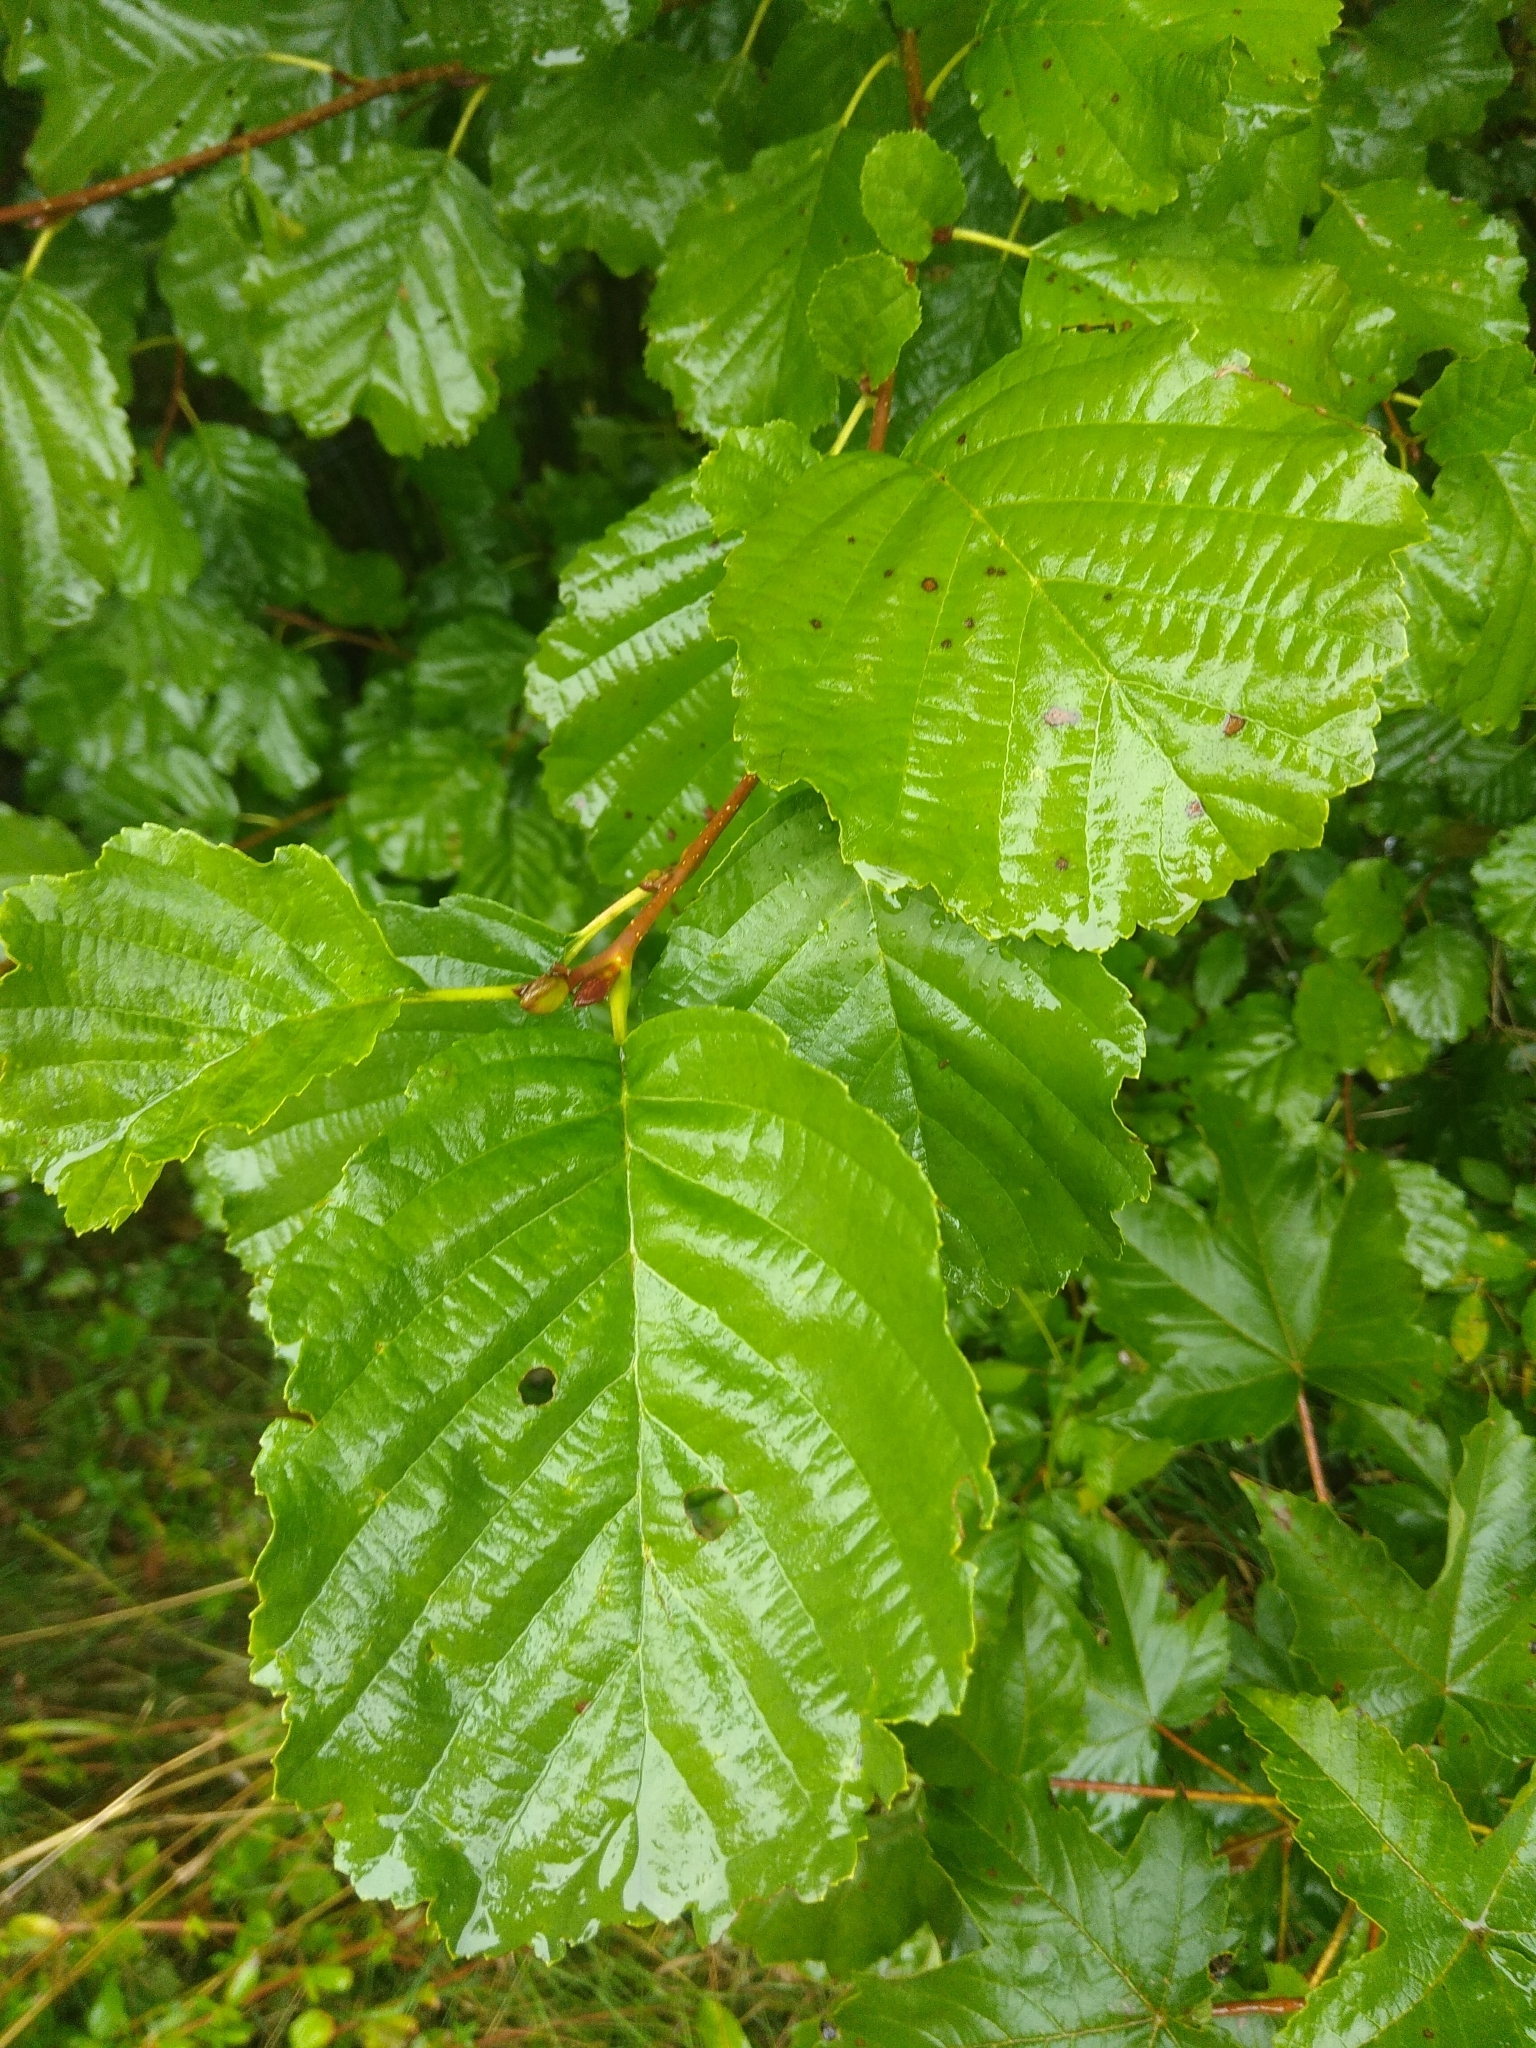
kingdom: Plantae
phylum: Tracheophyta
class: Magnoliopsida
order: Fagales
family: Betulaceae
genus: Alnus
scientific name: Alnus glutinosa
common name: Black alder
